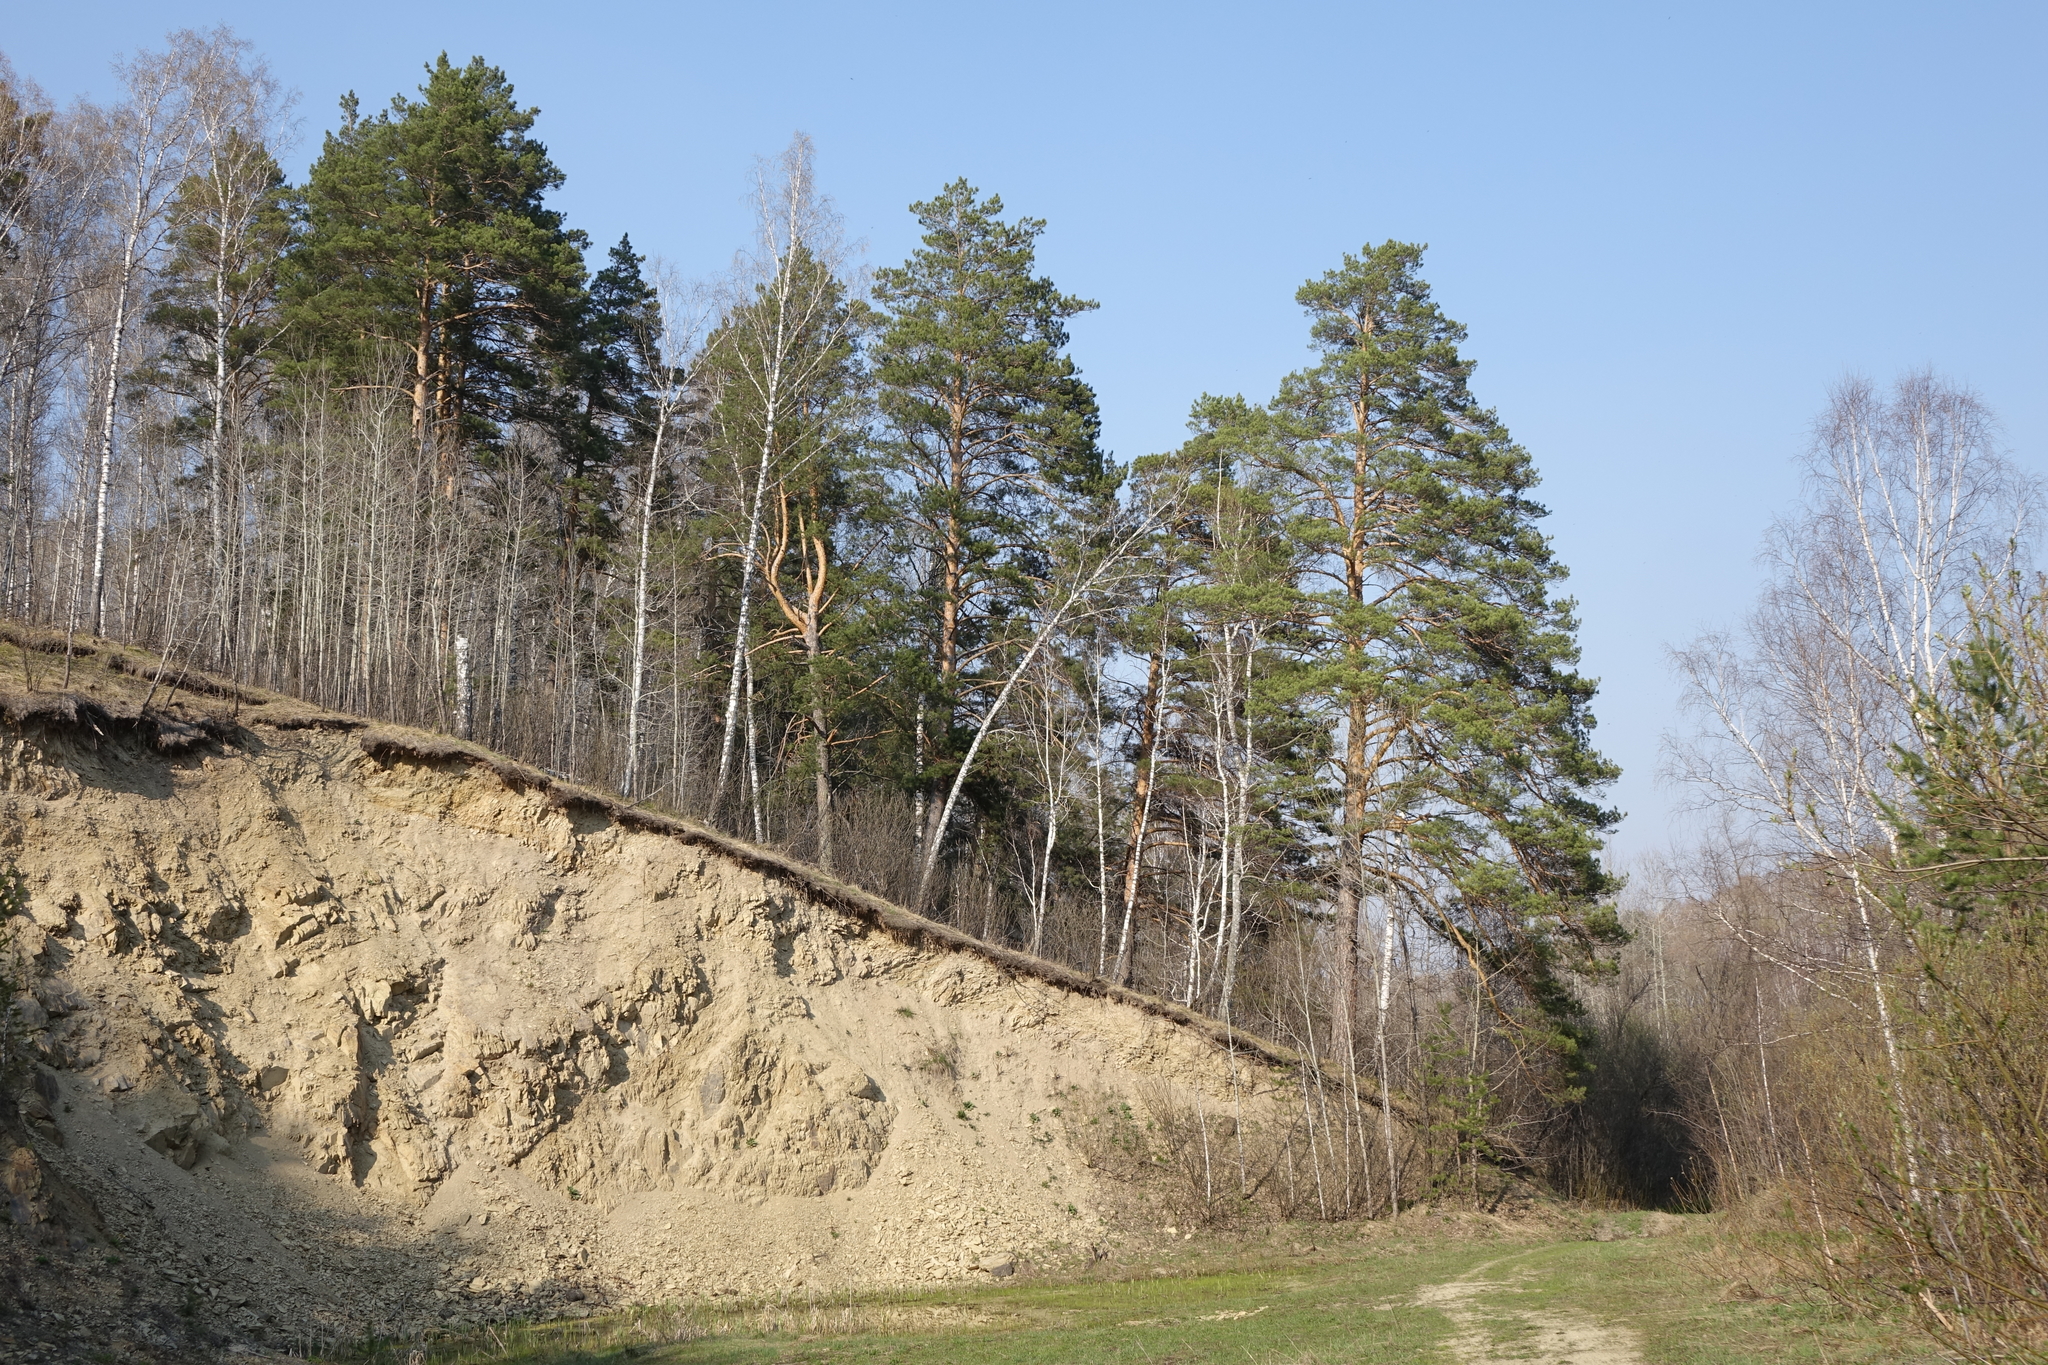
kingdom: Plantae
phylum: Tracheophyta
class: Pinopsida
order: Pinales
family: Pinaceae
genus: Pinus
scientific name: Pinus sylvestris
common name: Scots pine
